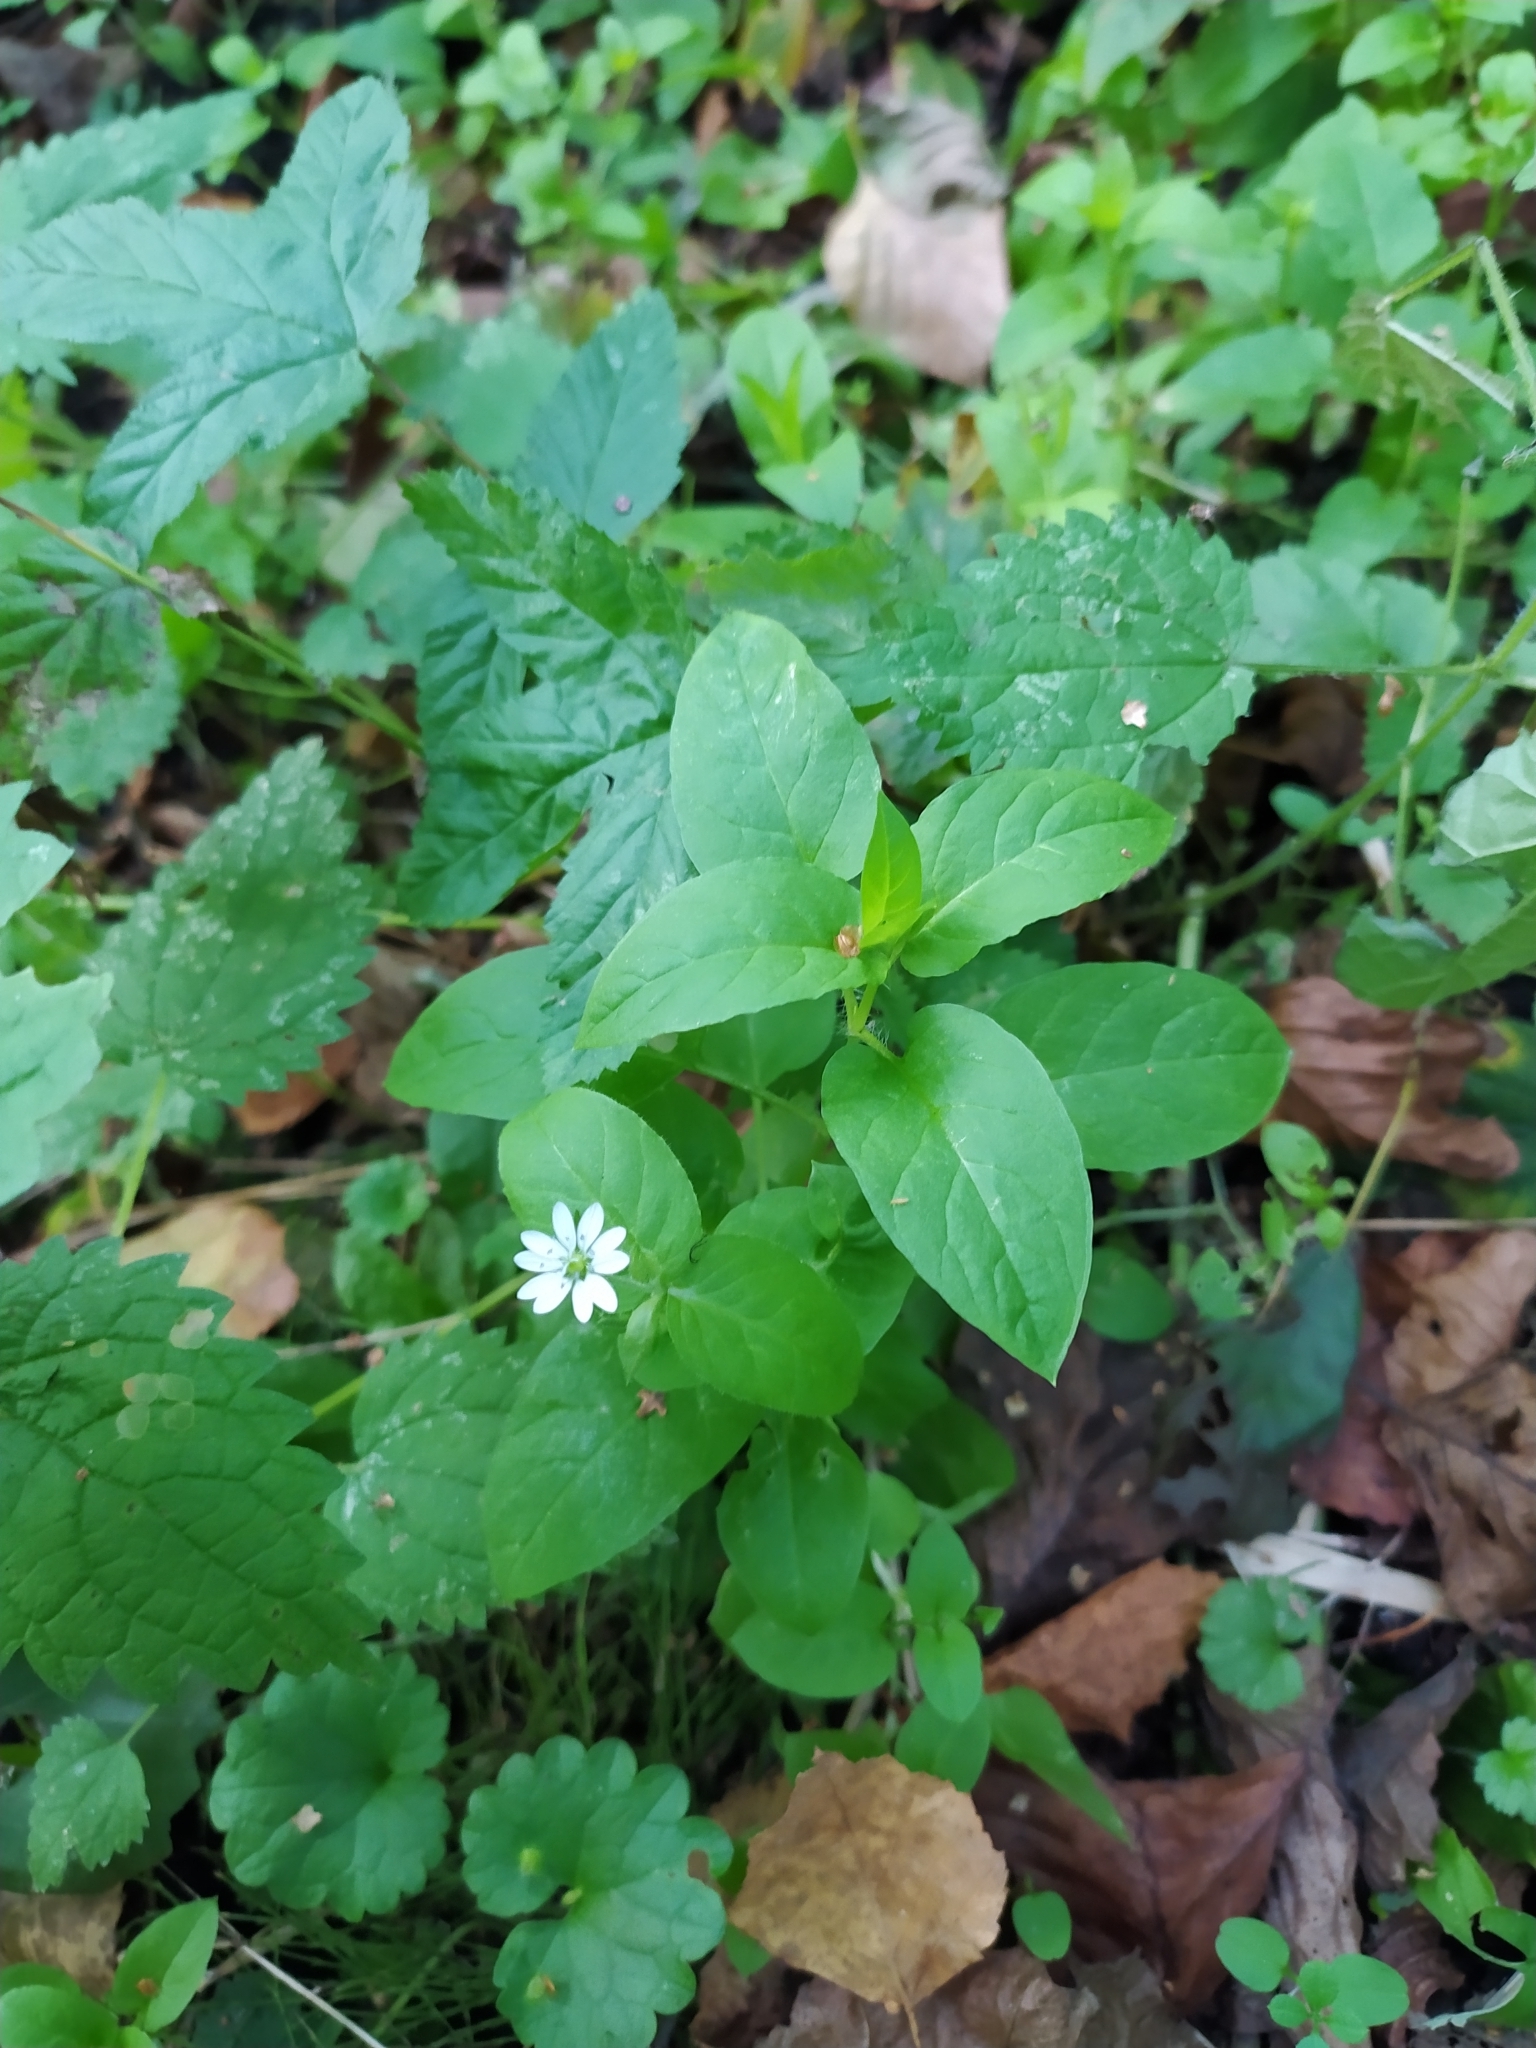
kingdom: Plantae
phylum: Tracheophyta
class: Magnoliopsida
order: Caryophyllales
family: Caryophyllaceae
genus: Stellaria
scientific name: Stellaria aquatica
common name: Water chickweed
